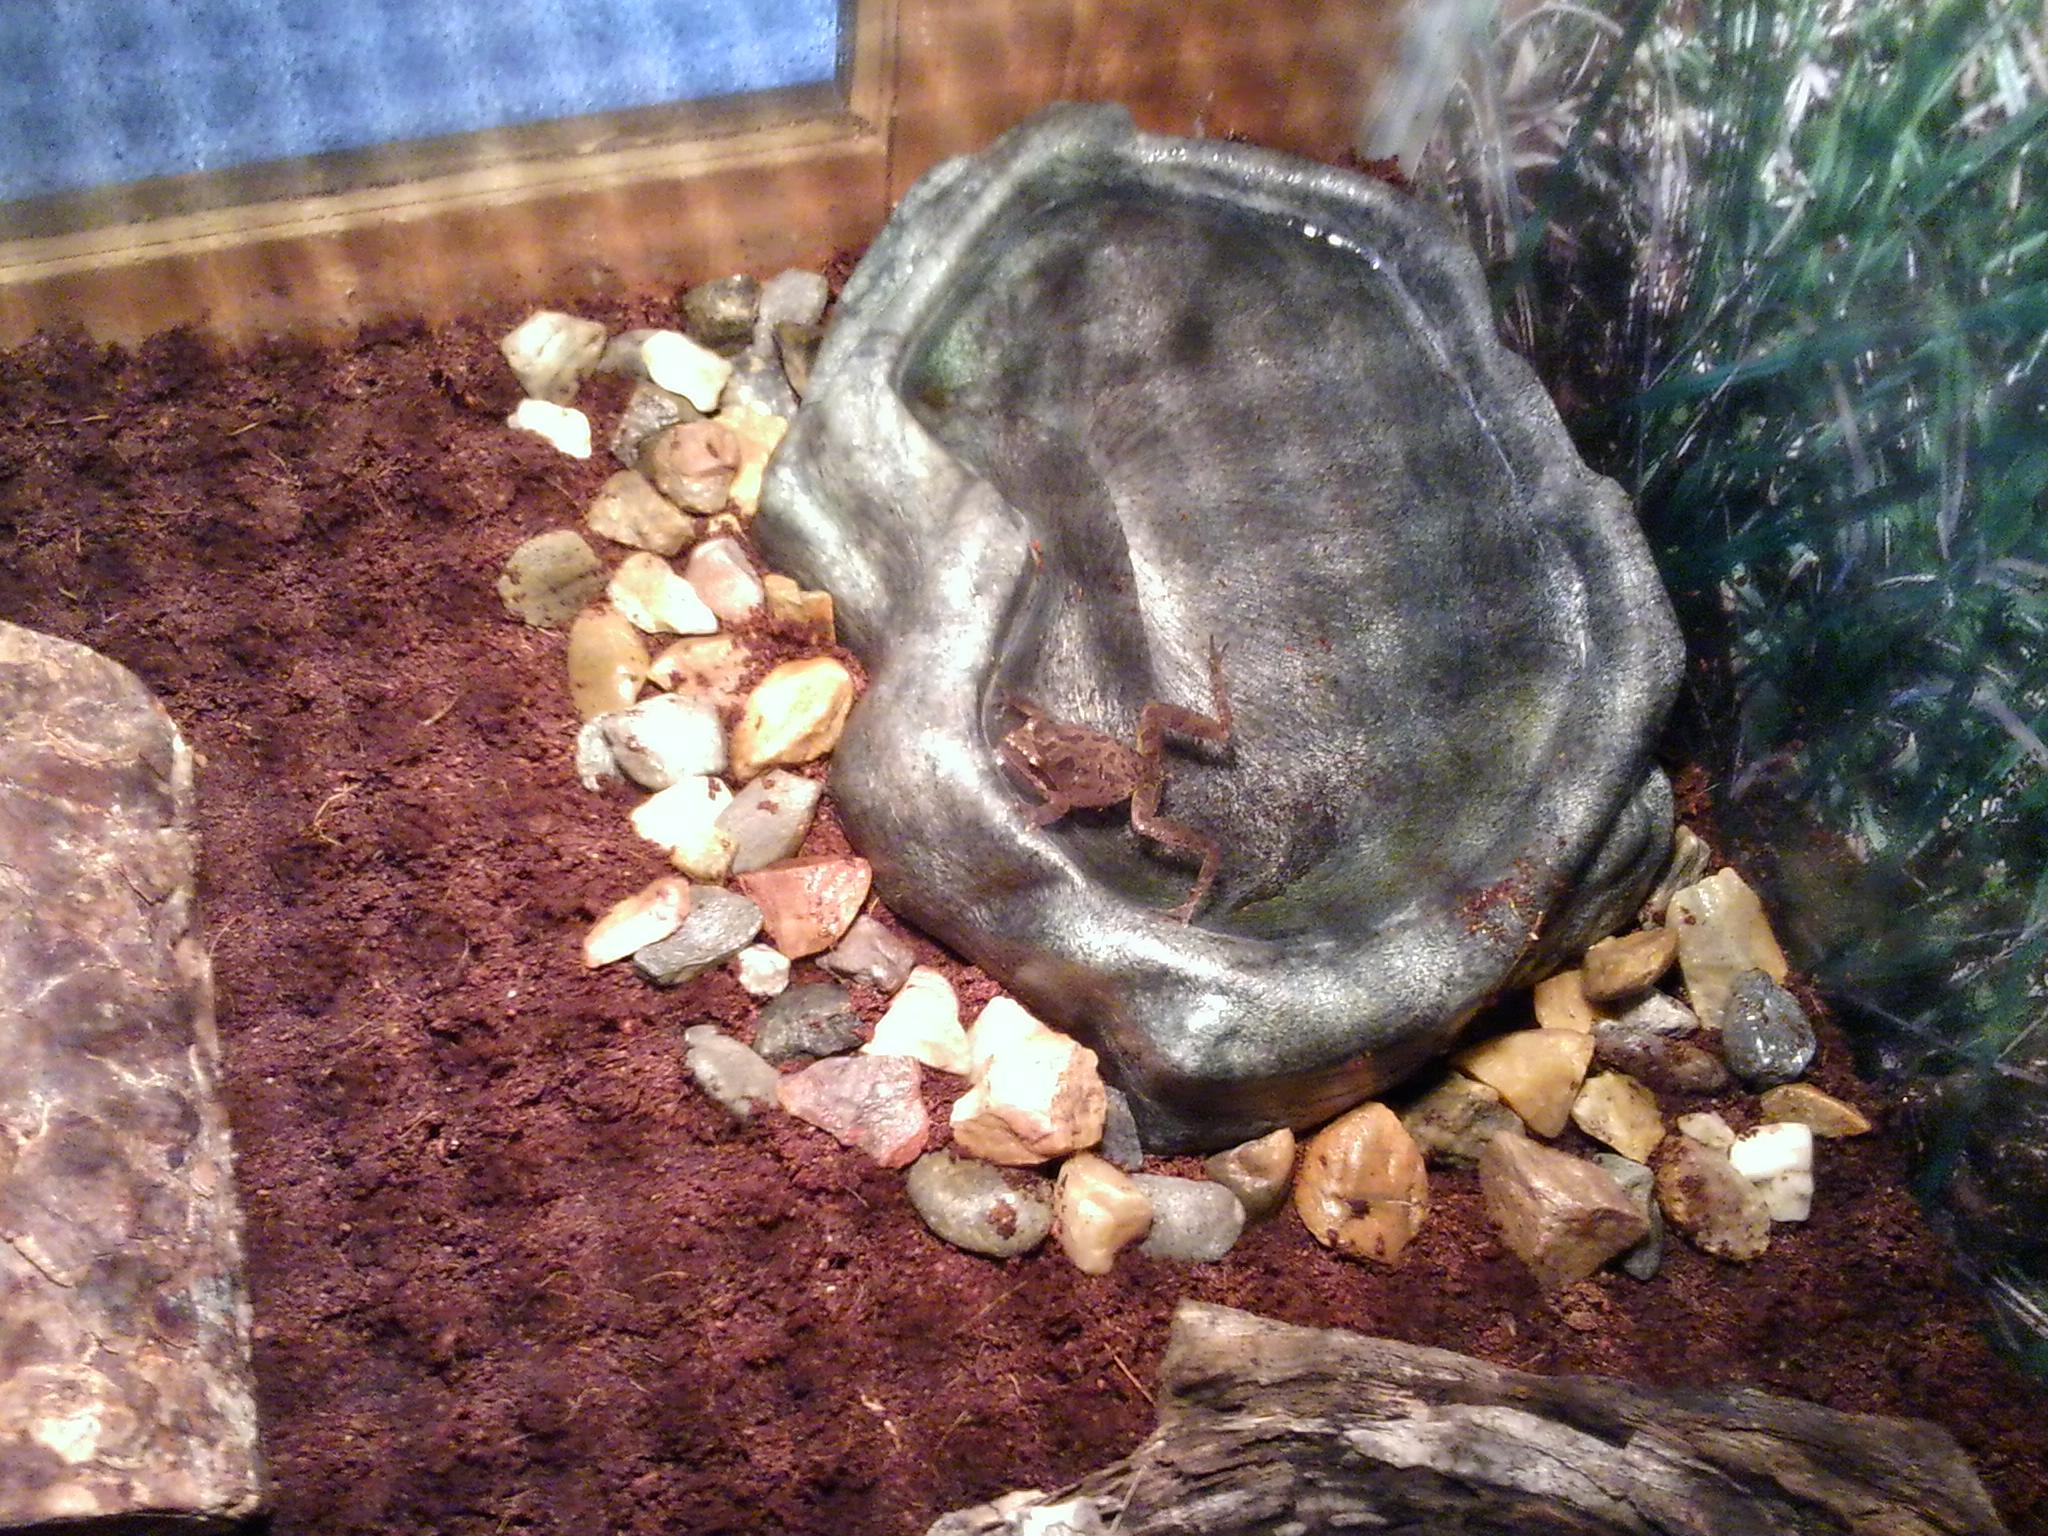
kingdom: Animalia
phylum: Chordata
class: Amphibia
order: Anura
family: Hylidae
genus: Pseudacris
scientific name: Pseudacris regilla
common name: Pacific chorus frog
